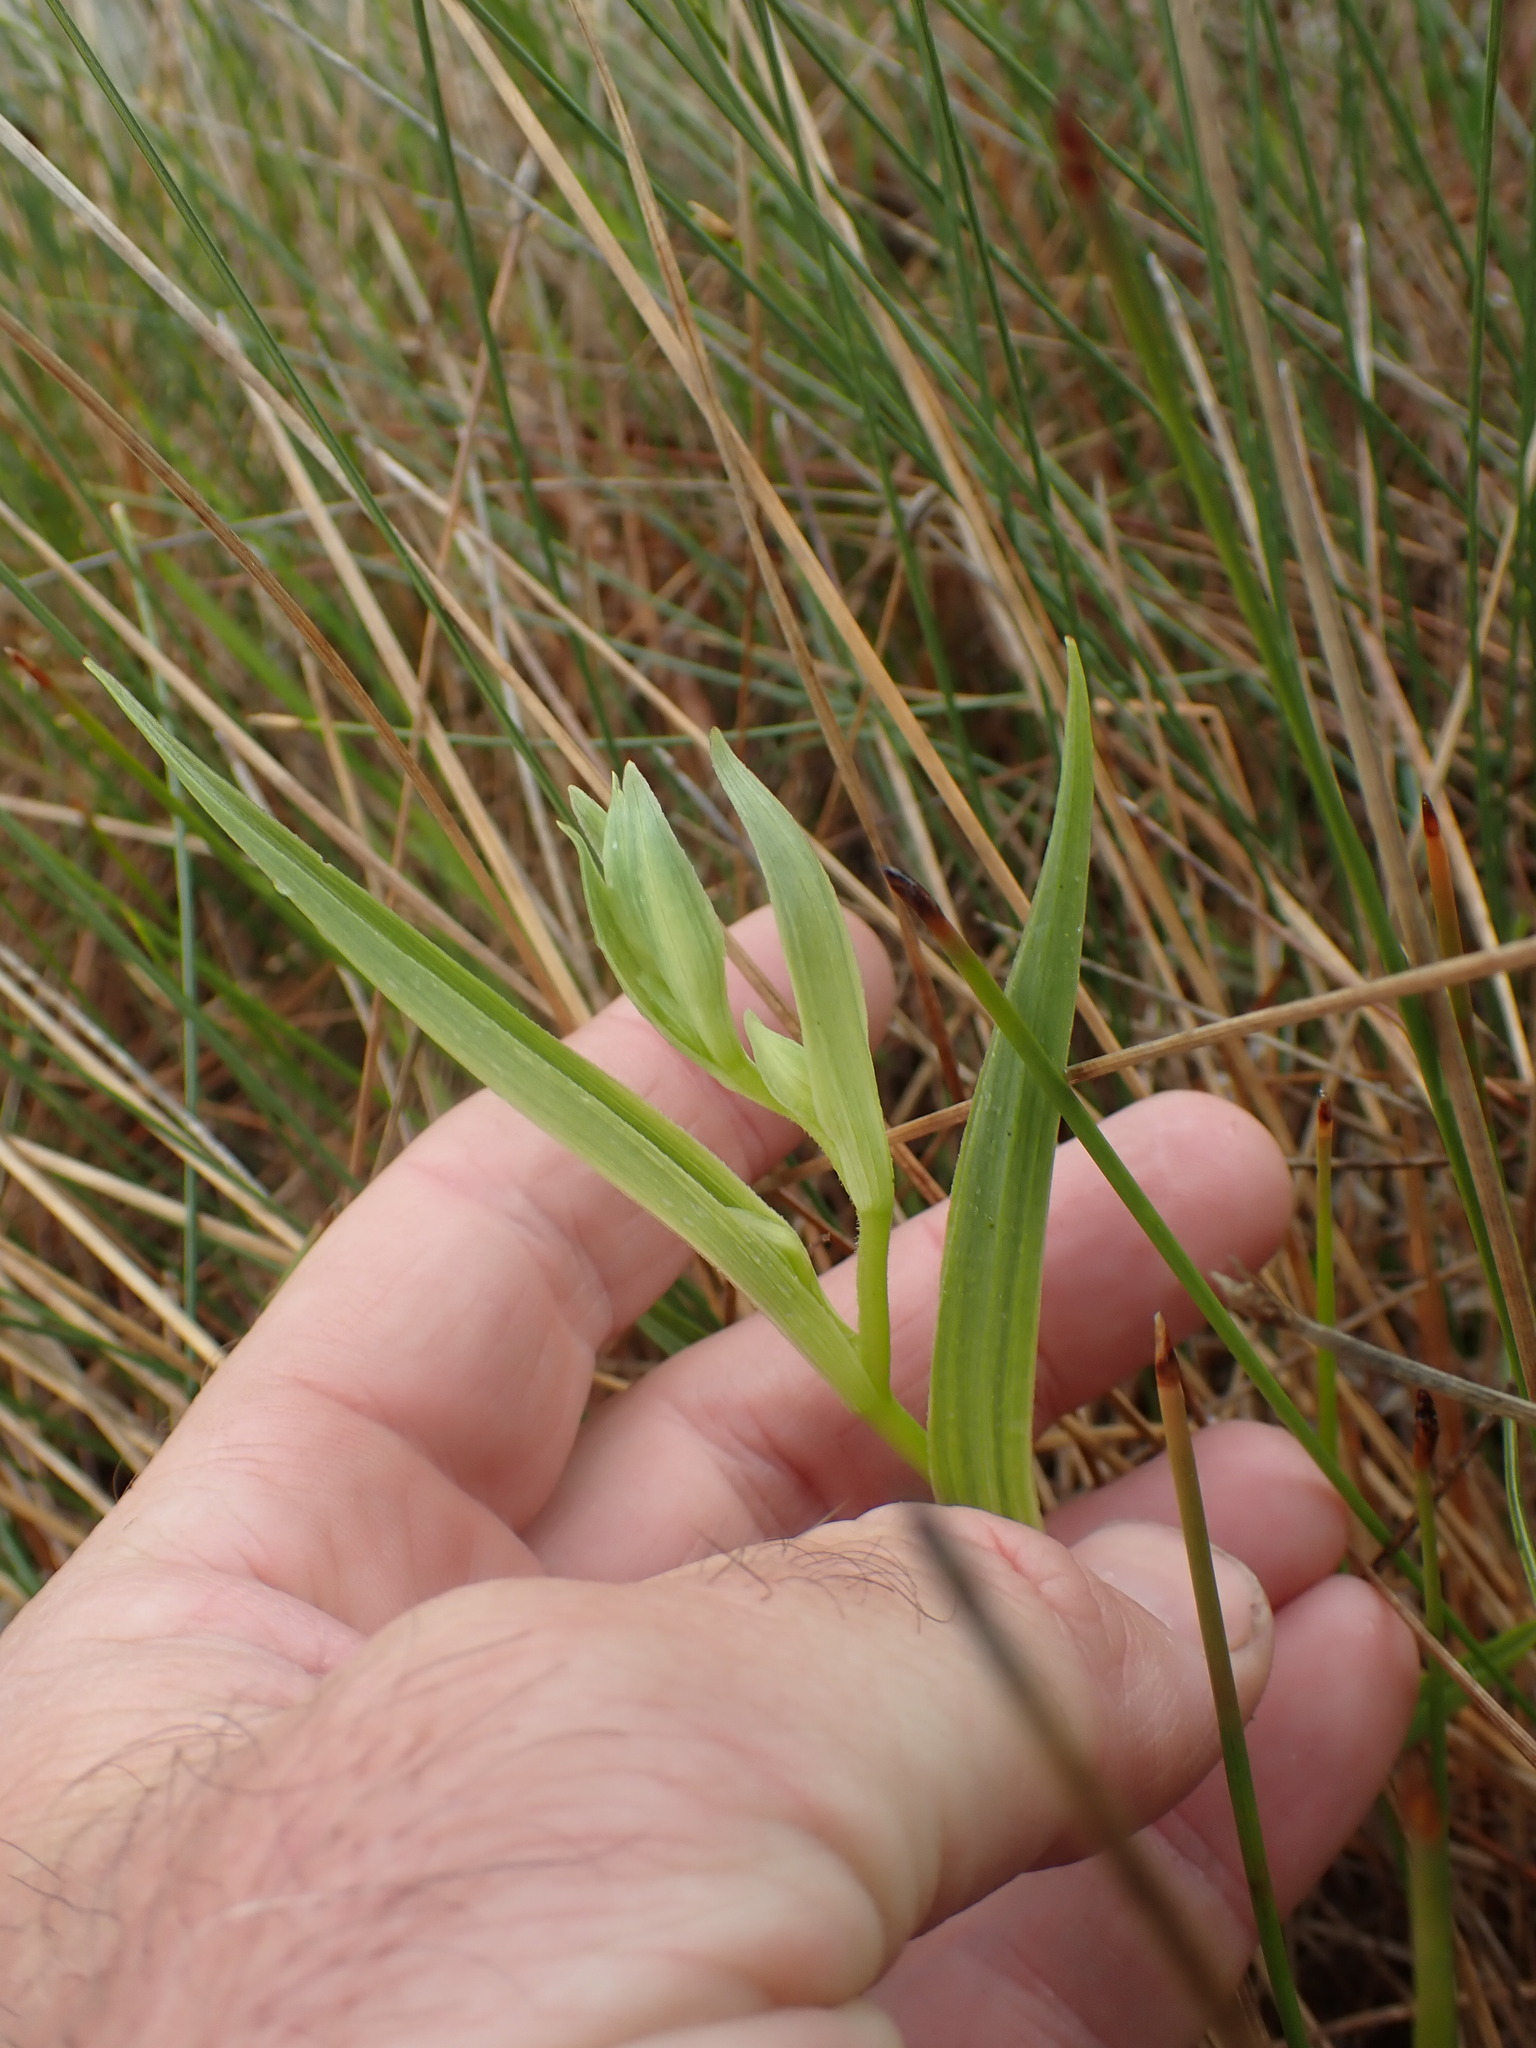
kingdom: Plantae
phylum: Tracheophyta
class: Liliopsida
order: Asparagales
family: Orchidaceae
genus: Epipactis
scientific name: Epipactis gigantea
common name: Chatterbox
